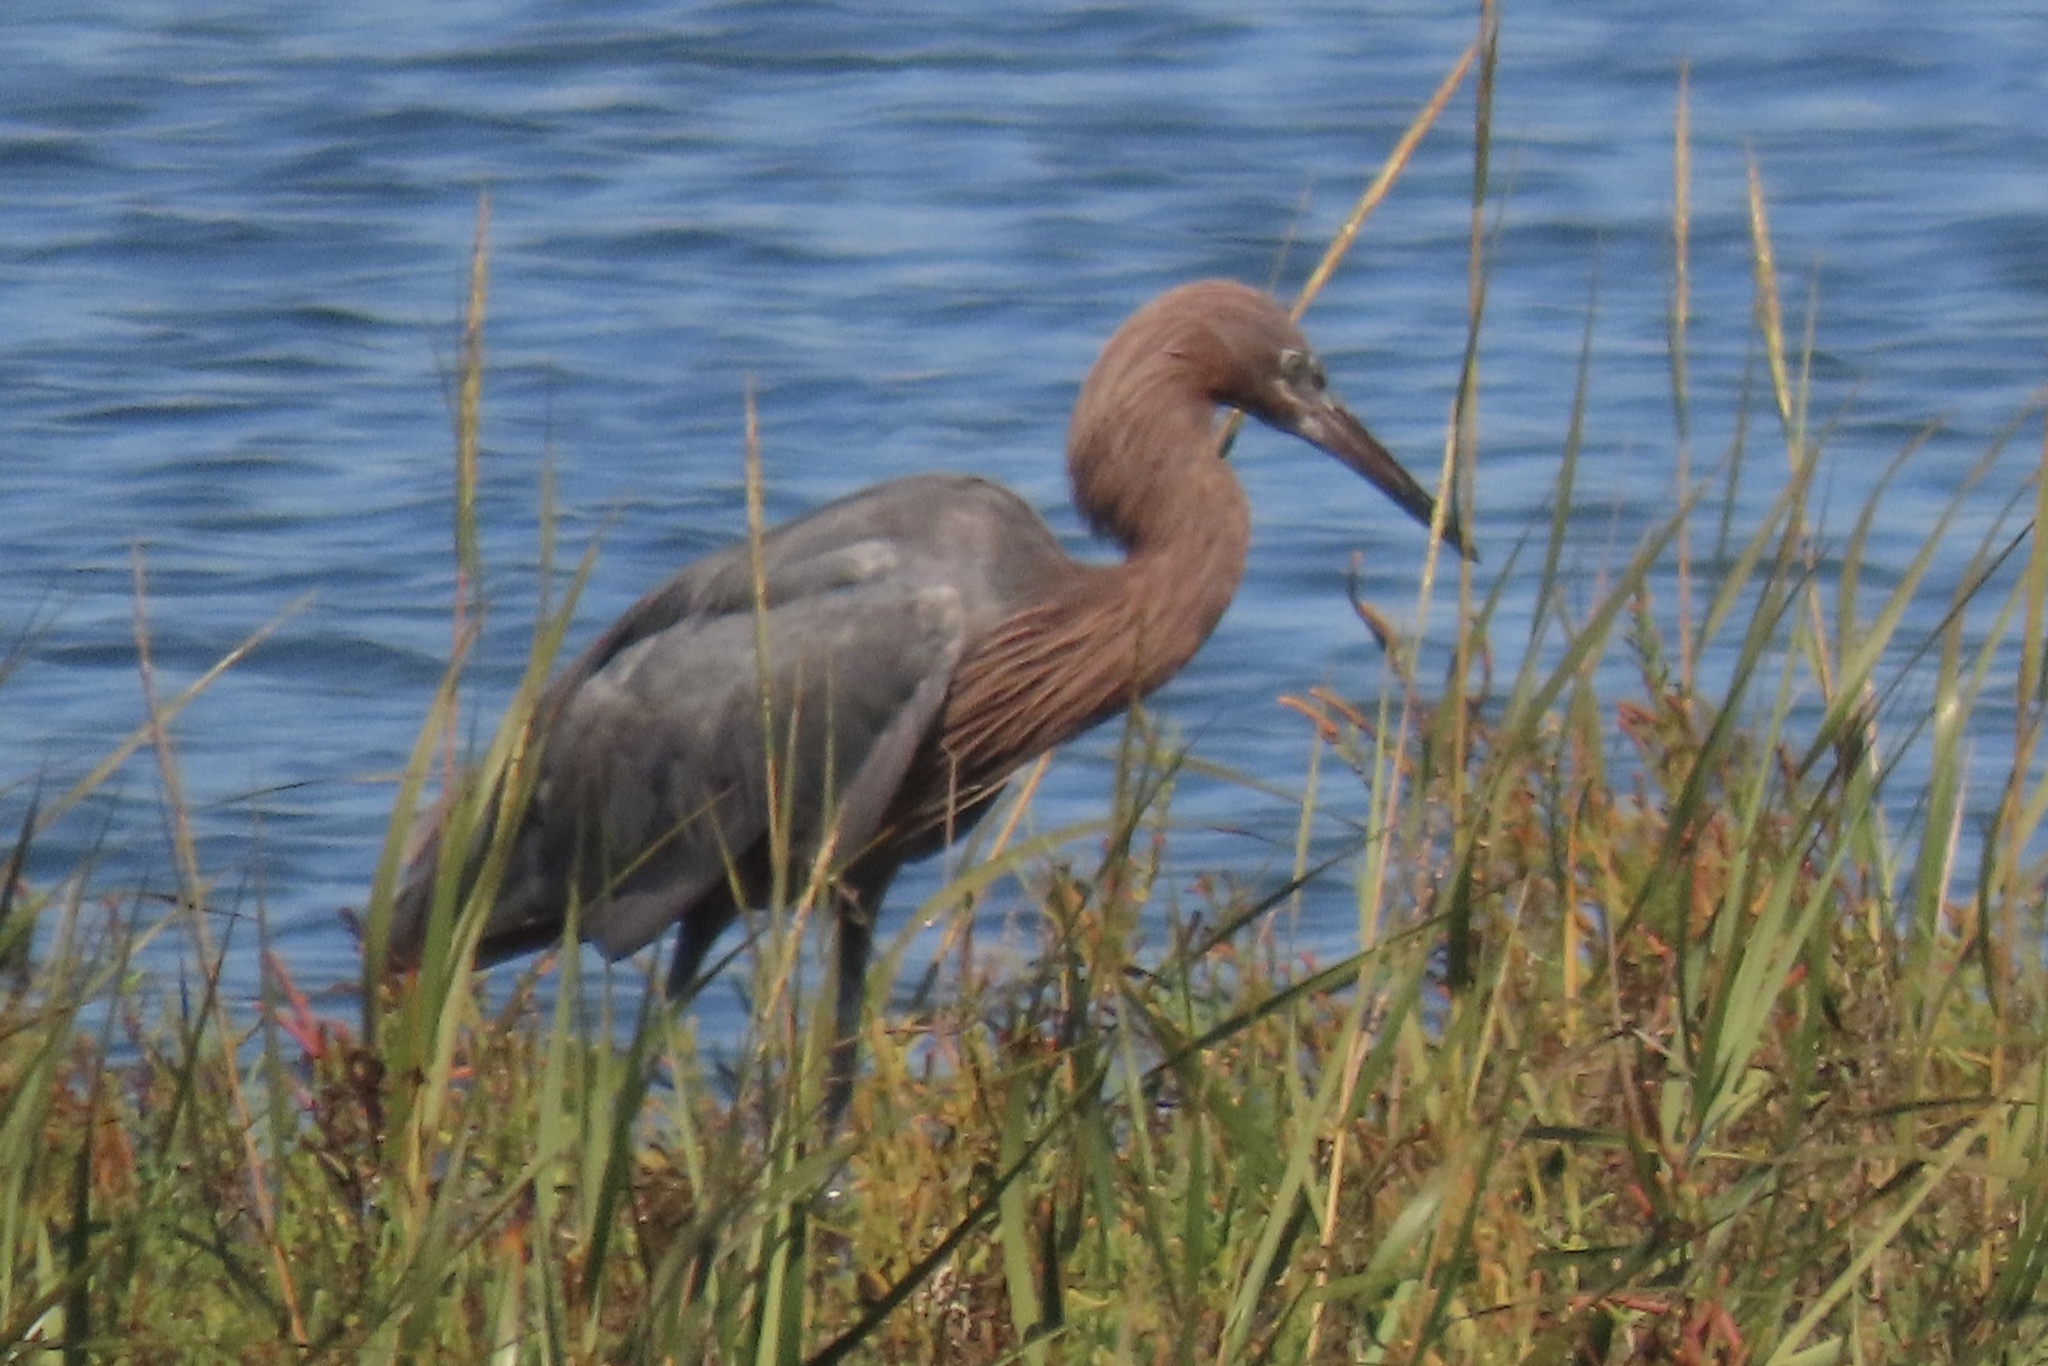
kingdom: Animalia
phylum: Chordata
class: Aves
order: Pelecaniformes
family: Ardeidae
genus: Egretta
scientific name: Egretta rufescens
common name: Reddish egret
